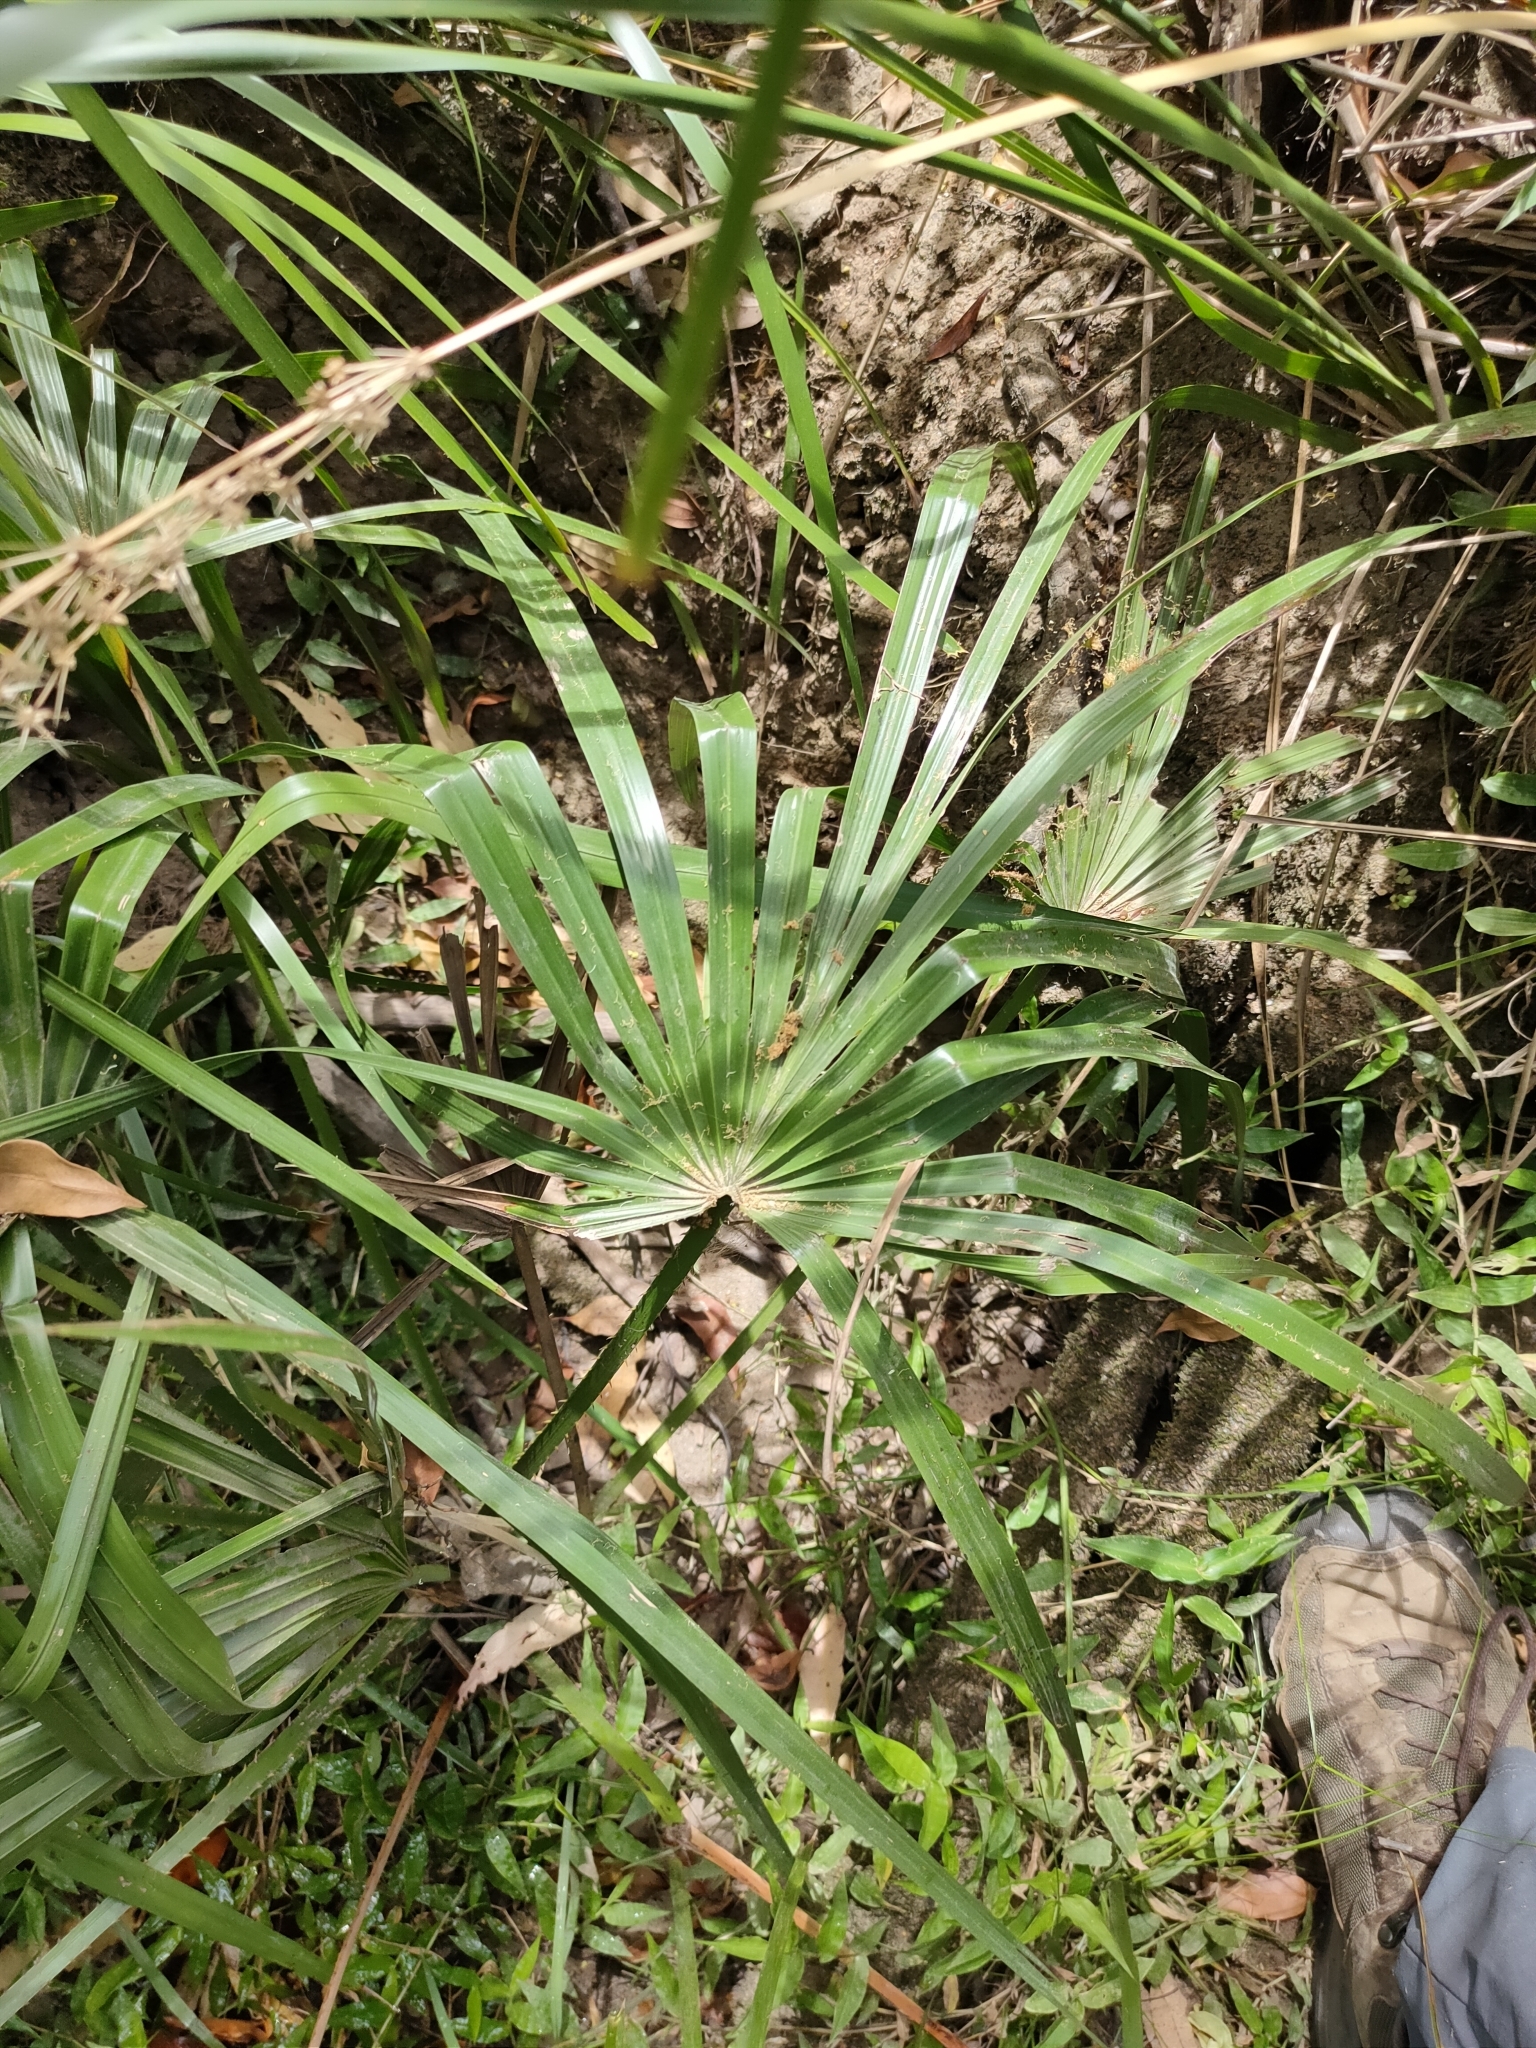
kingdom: Plantae
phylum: Tracheophyta
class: Liliopsida
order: Arecales
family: Arecaceae
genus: Livistona
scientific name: Livistona decora
